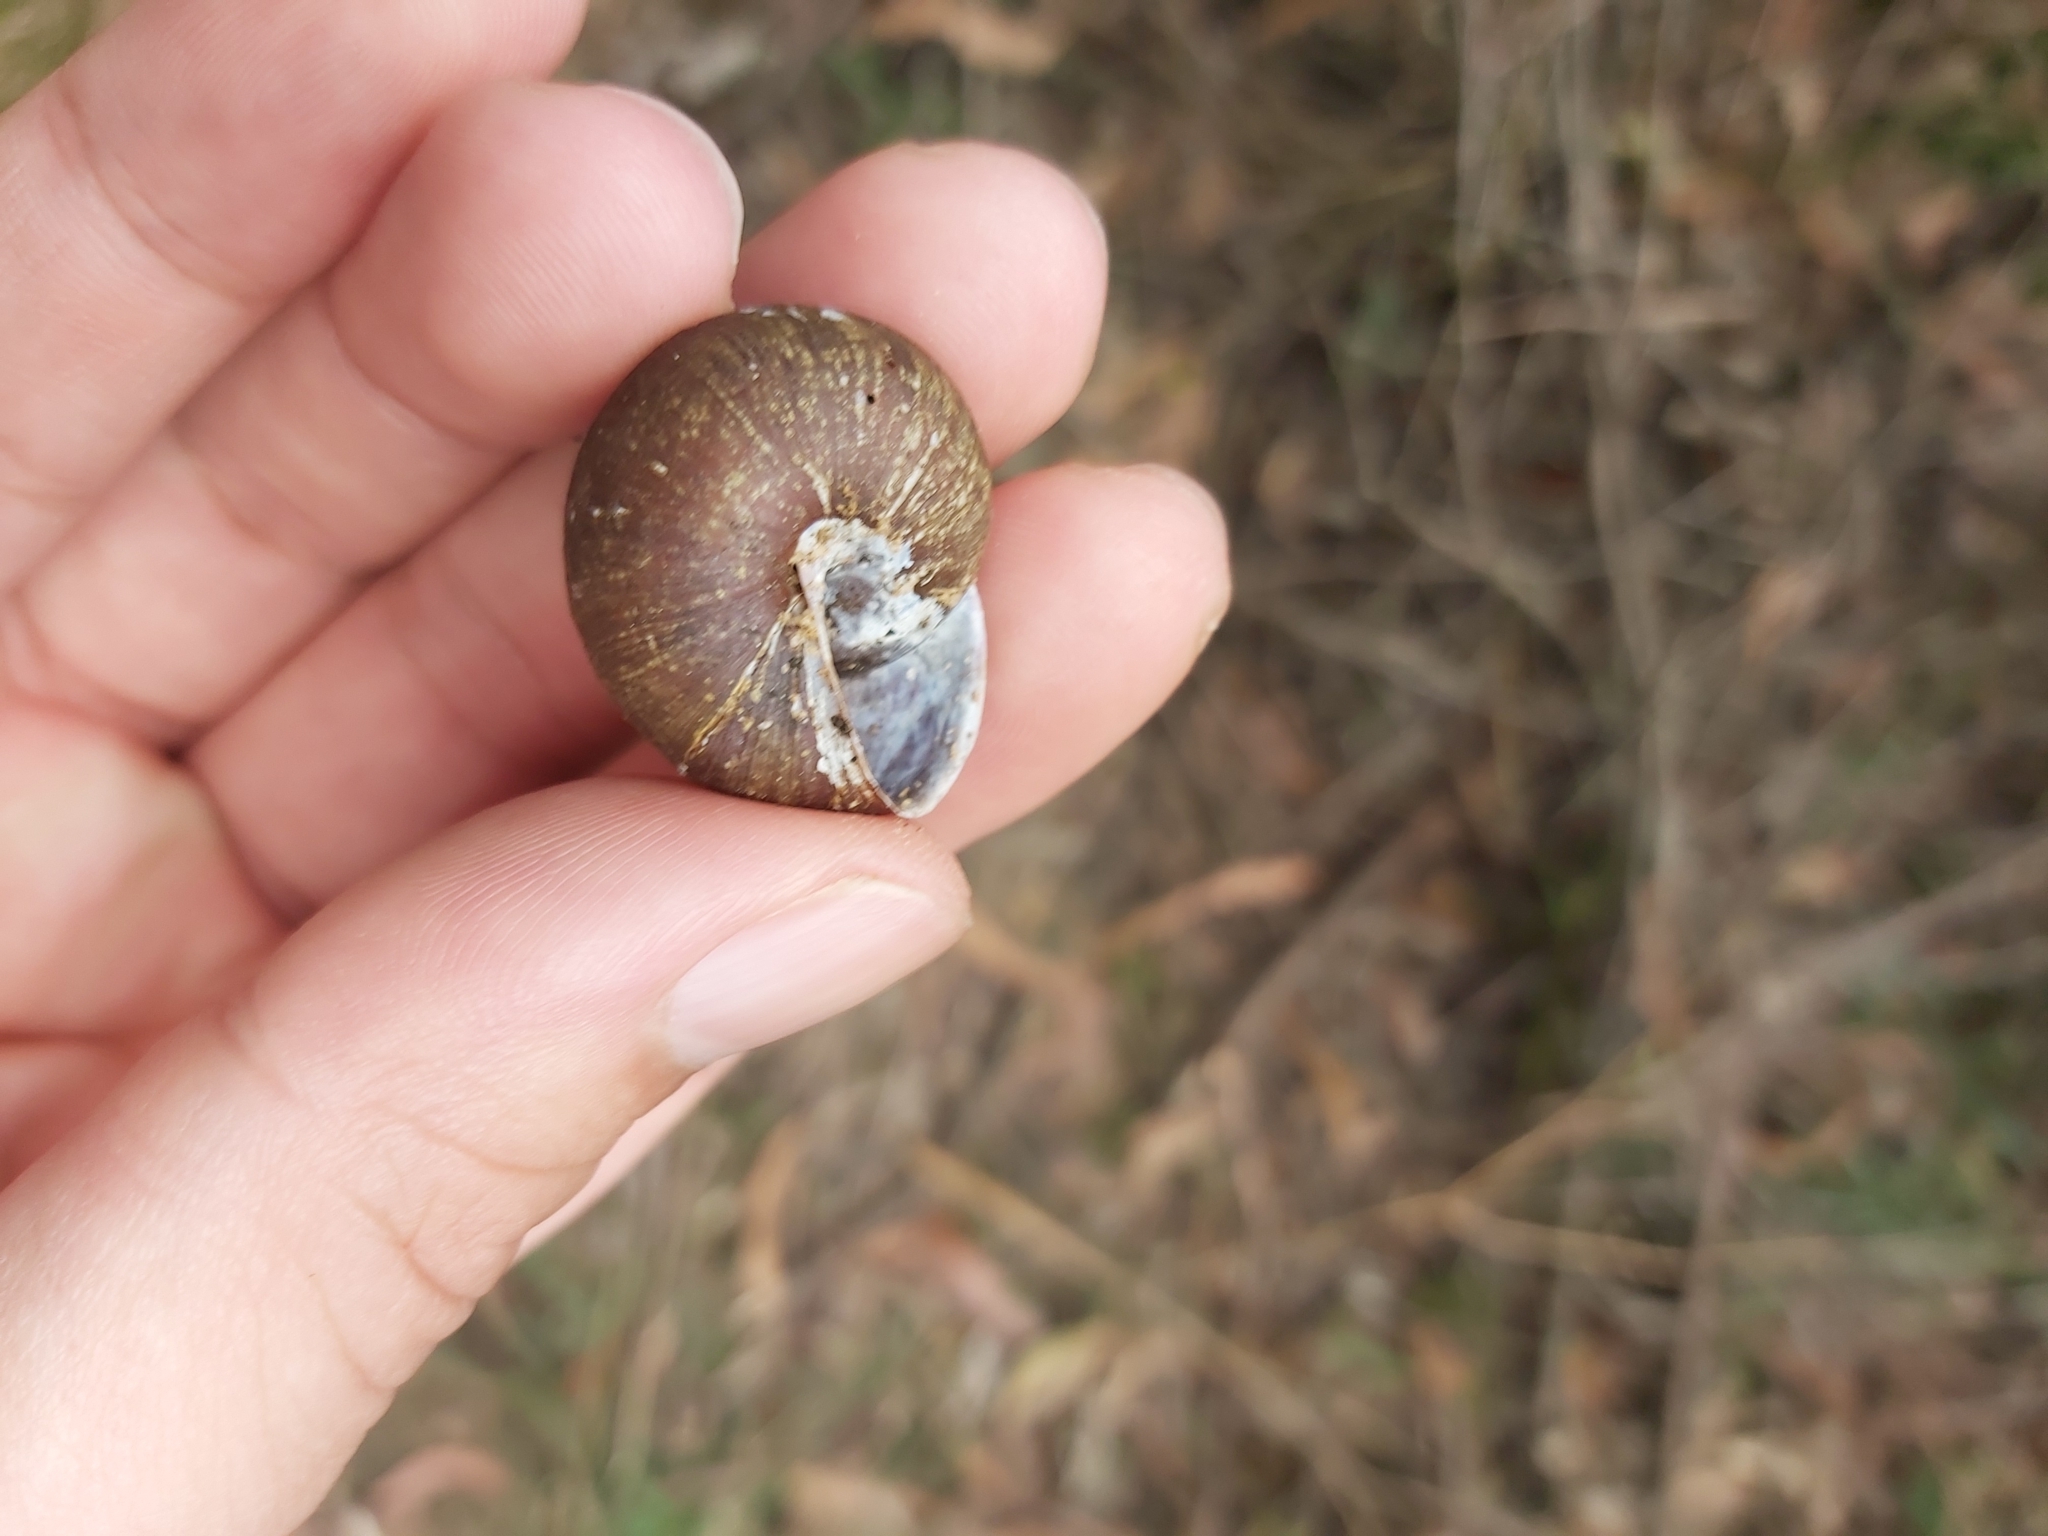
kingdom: Animalia
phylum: Mollusca
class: Gastropoda
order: Stylommatophora
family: Camaenidae
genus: Pommerhelix
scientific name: Pommerhelix monacha
